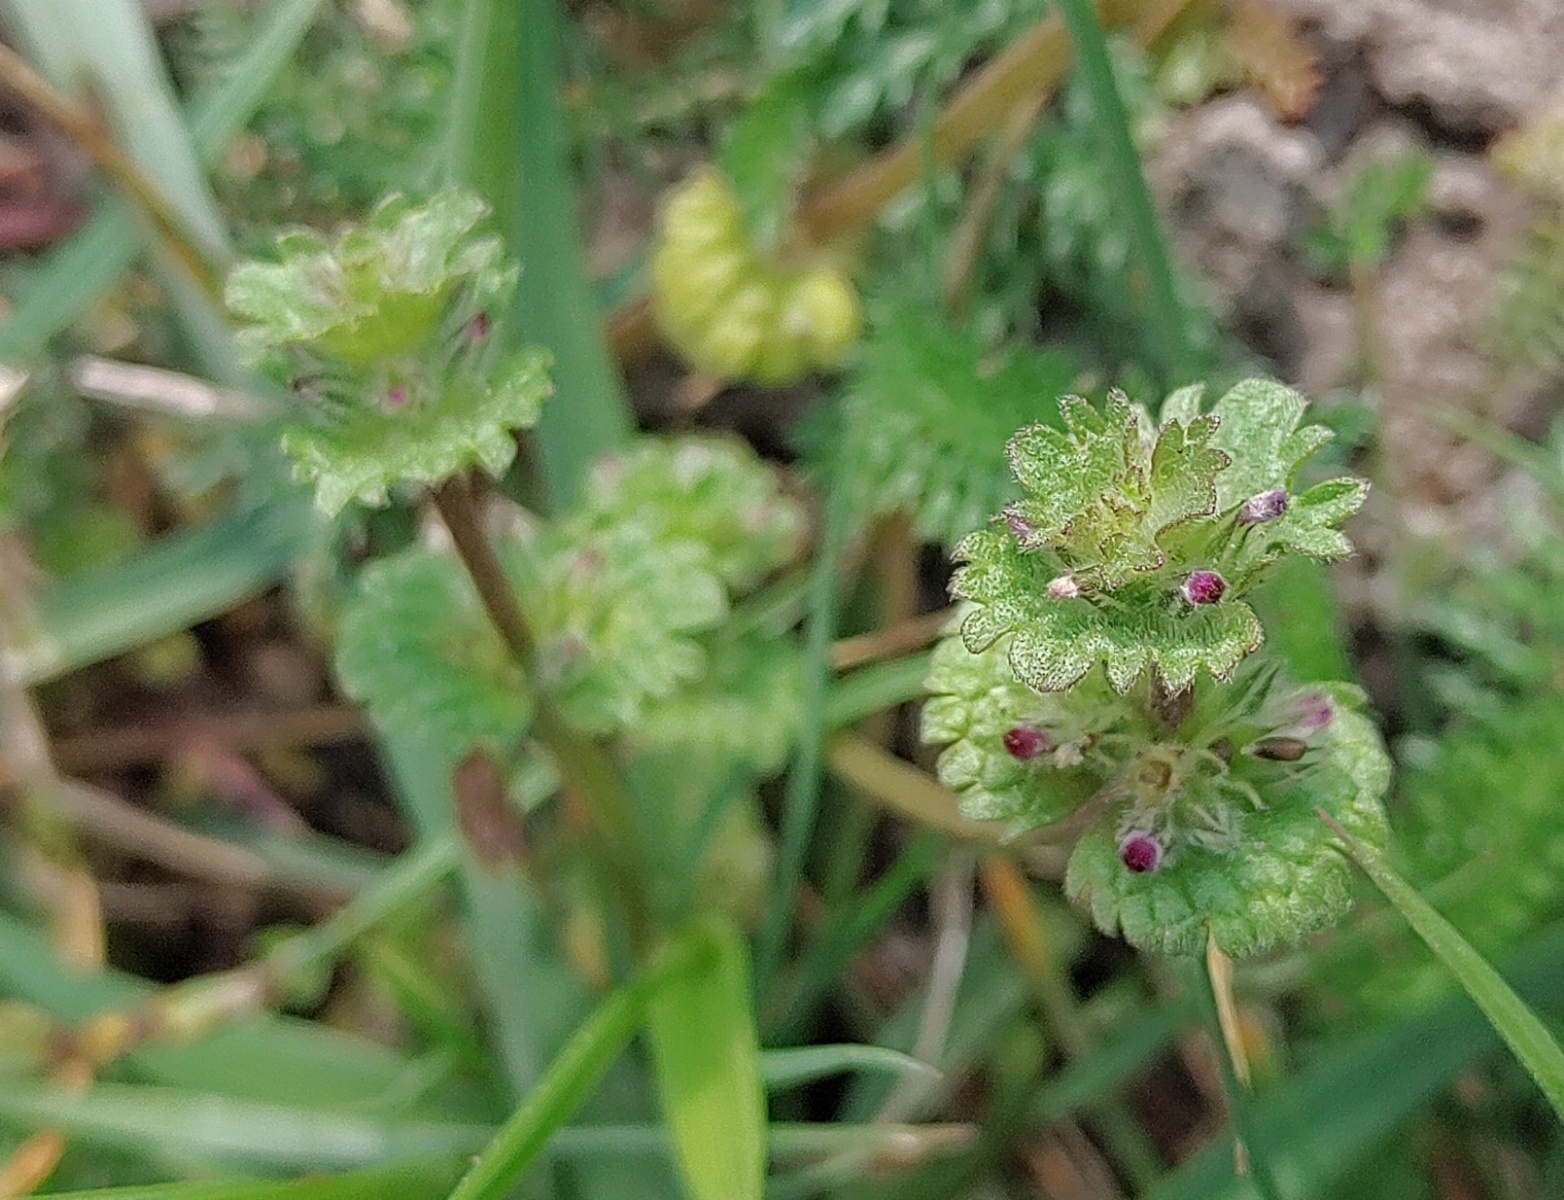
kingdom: Plantae
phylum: Tracheophyta
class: Magnoliopsida
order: Lamiales
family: Lamiaceae
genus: Lamium
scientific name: Lamium amplexicaule
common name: Henbit dead-nettle
